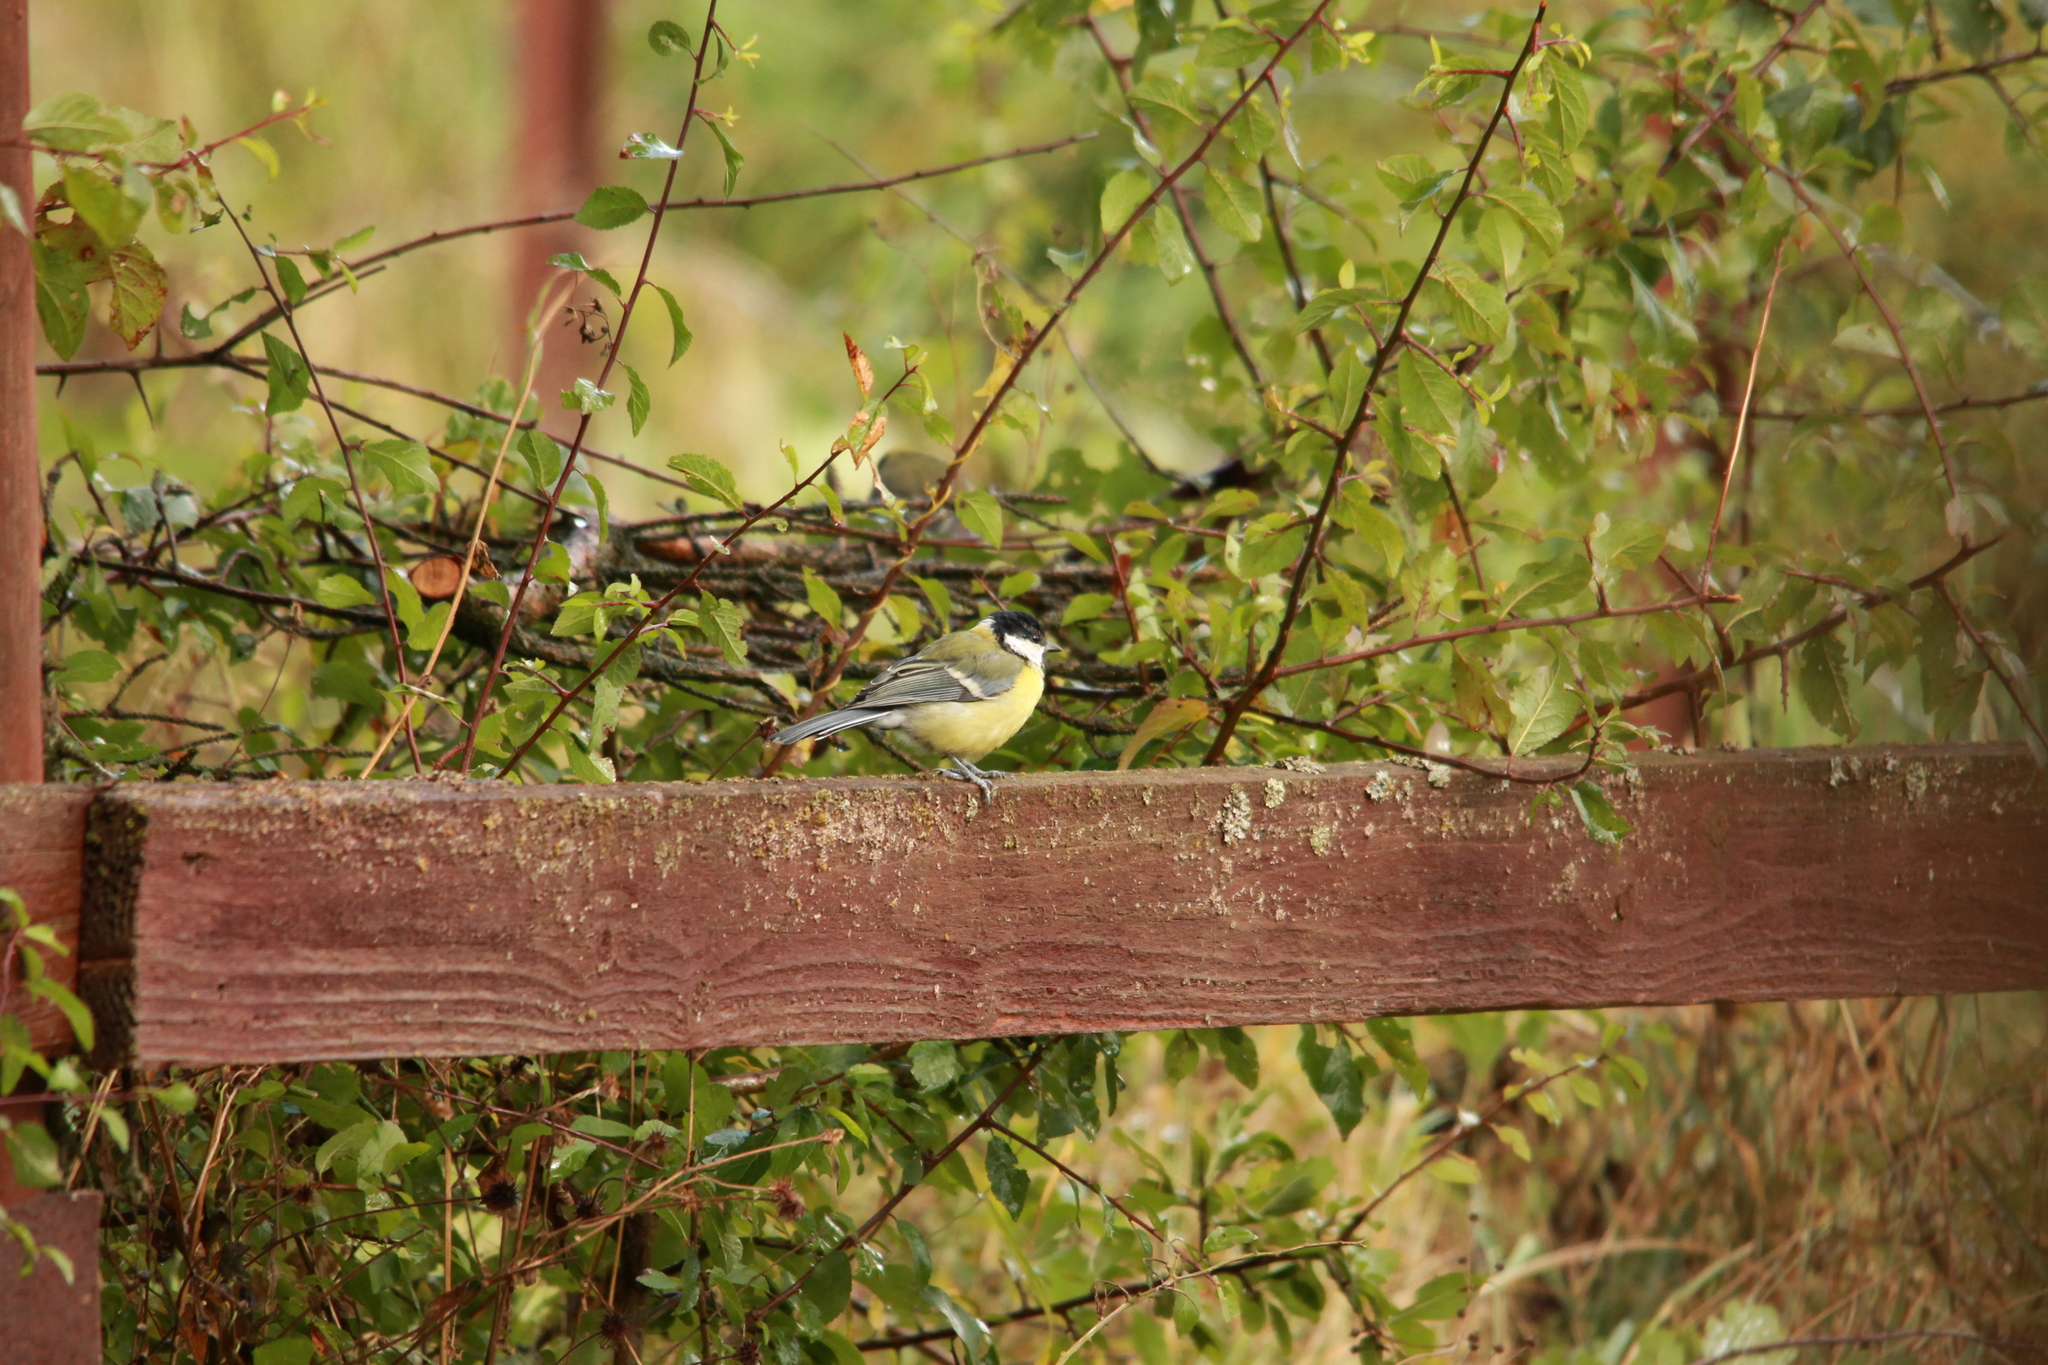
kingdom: Animalia
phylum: Chordata
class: Aves
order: Passeriformes
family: Paridae
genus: Parus
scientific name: Parus major
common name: Great tit
